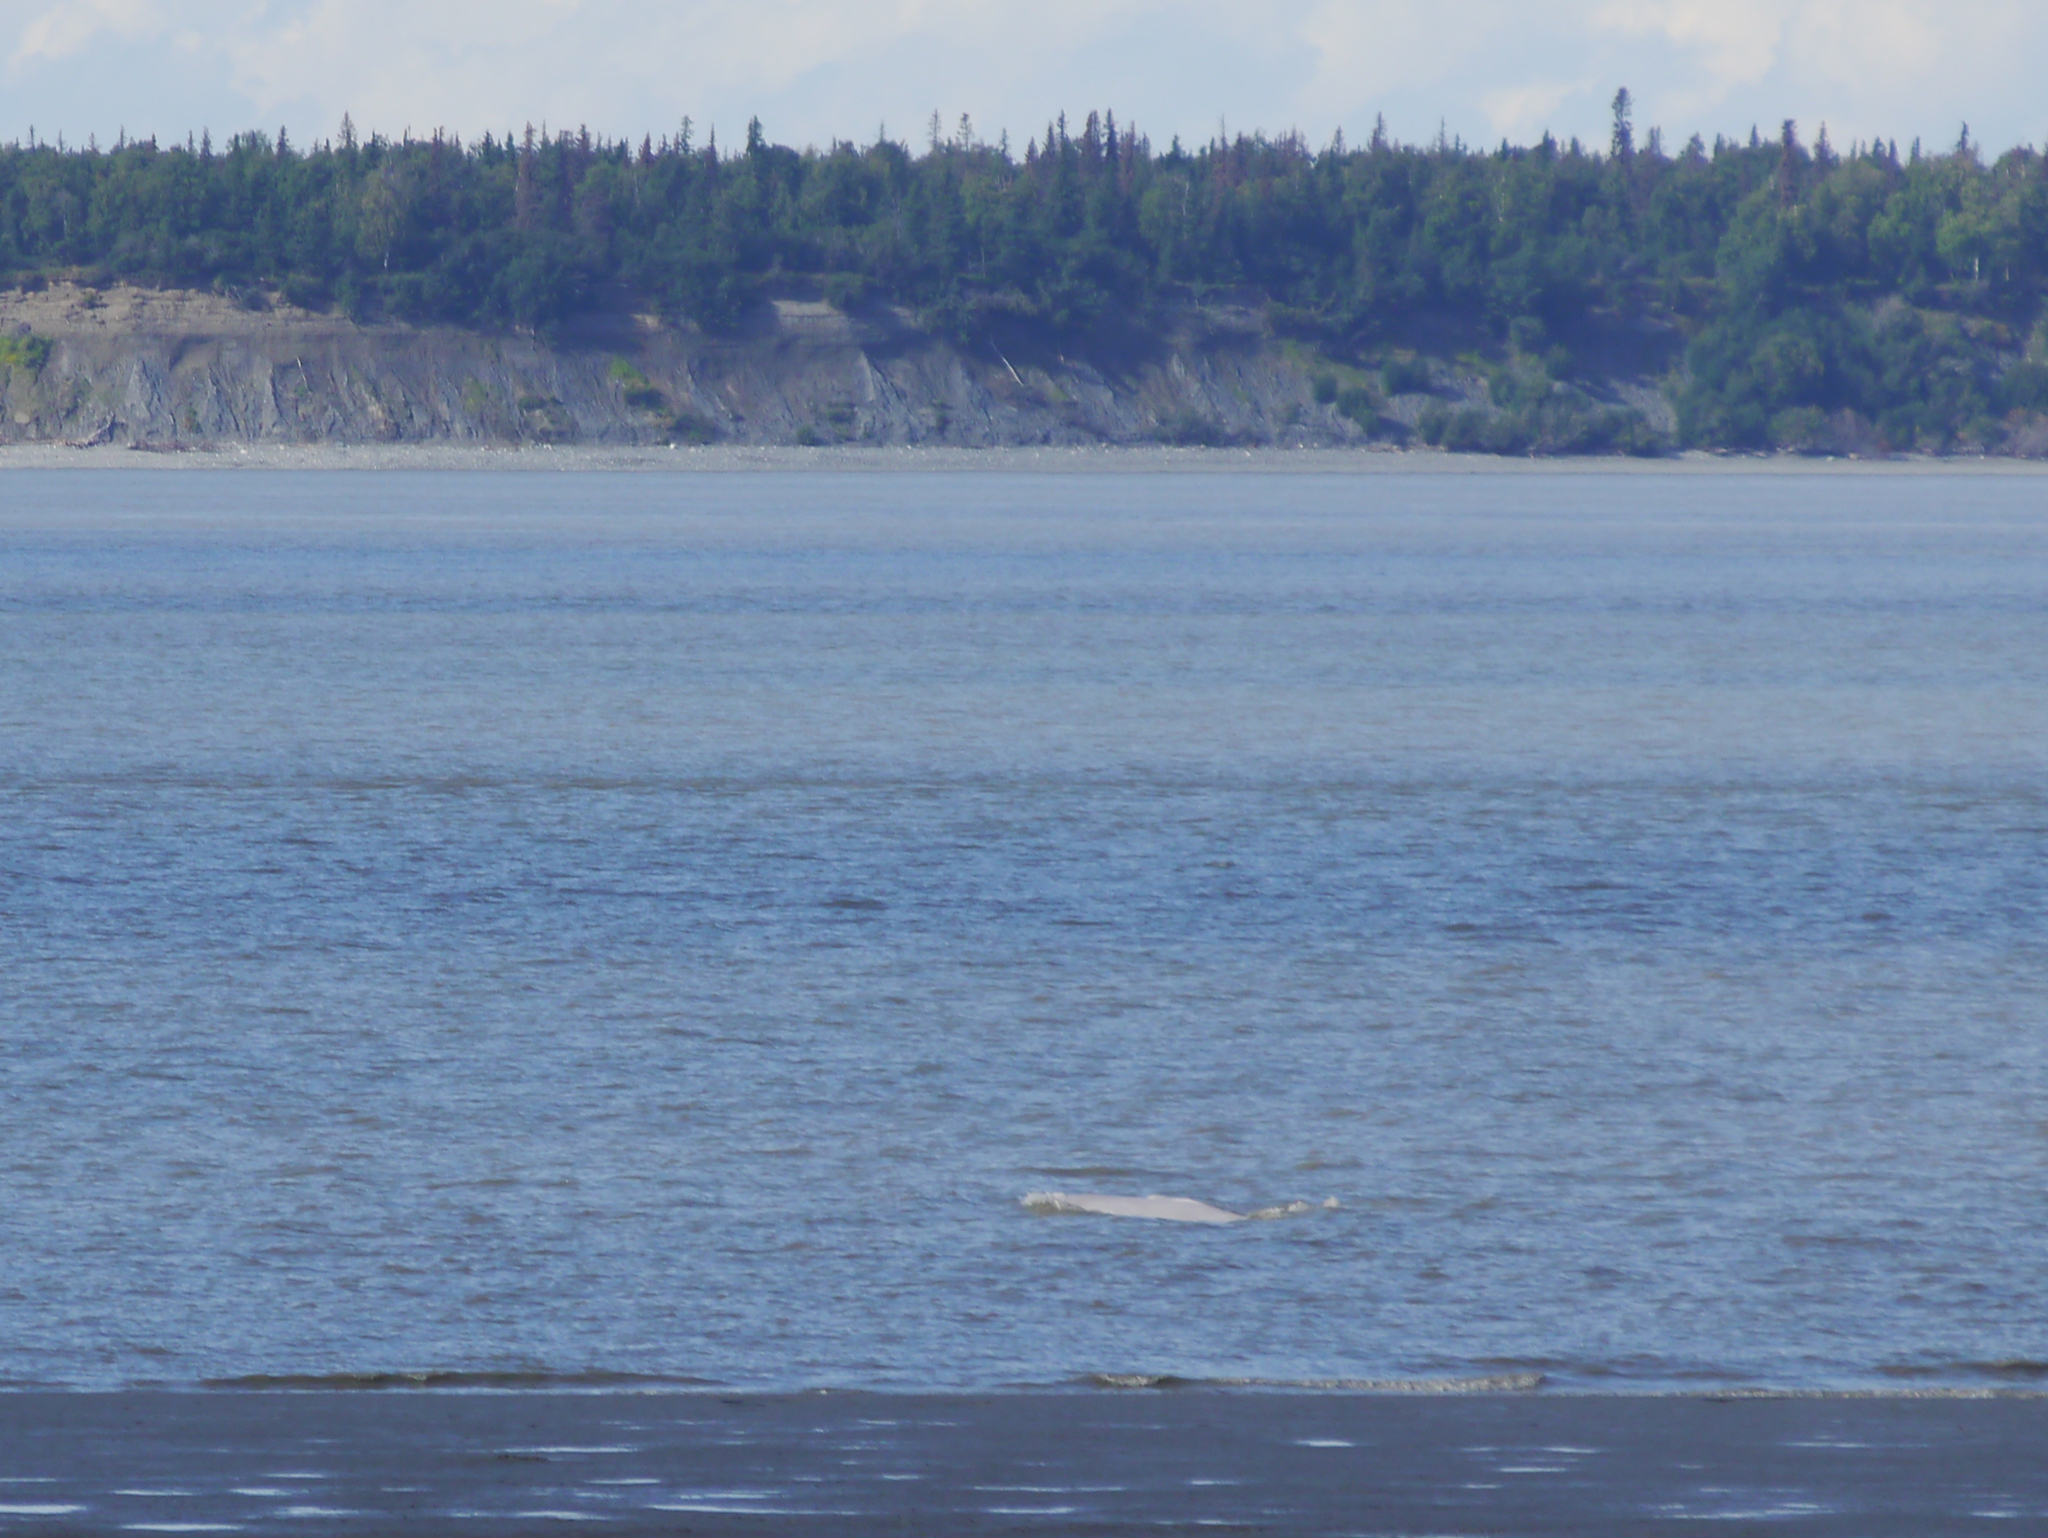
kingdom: Animalia
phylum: Chordata
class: Mammalia
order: Cetacea
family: Monodontidae
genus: Delphinapterus
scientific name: Delphinapterus leucas
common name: Beluga
